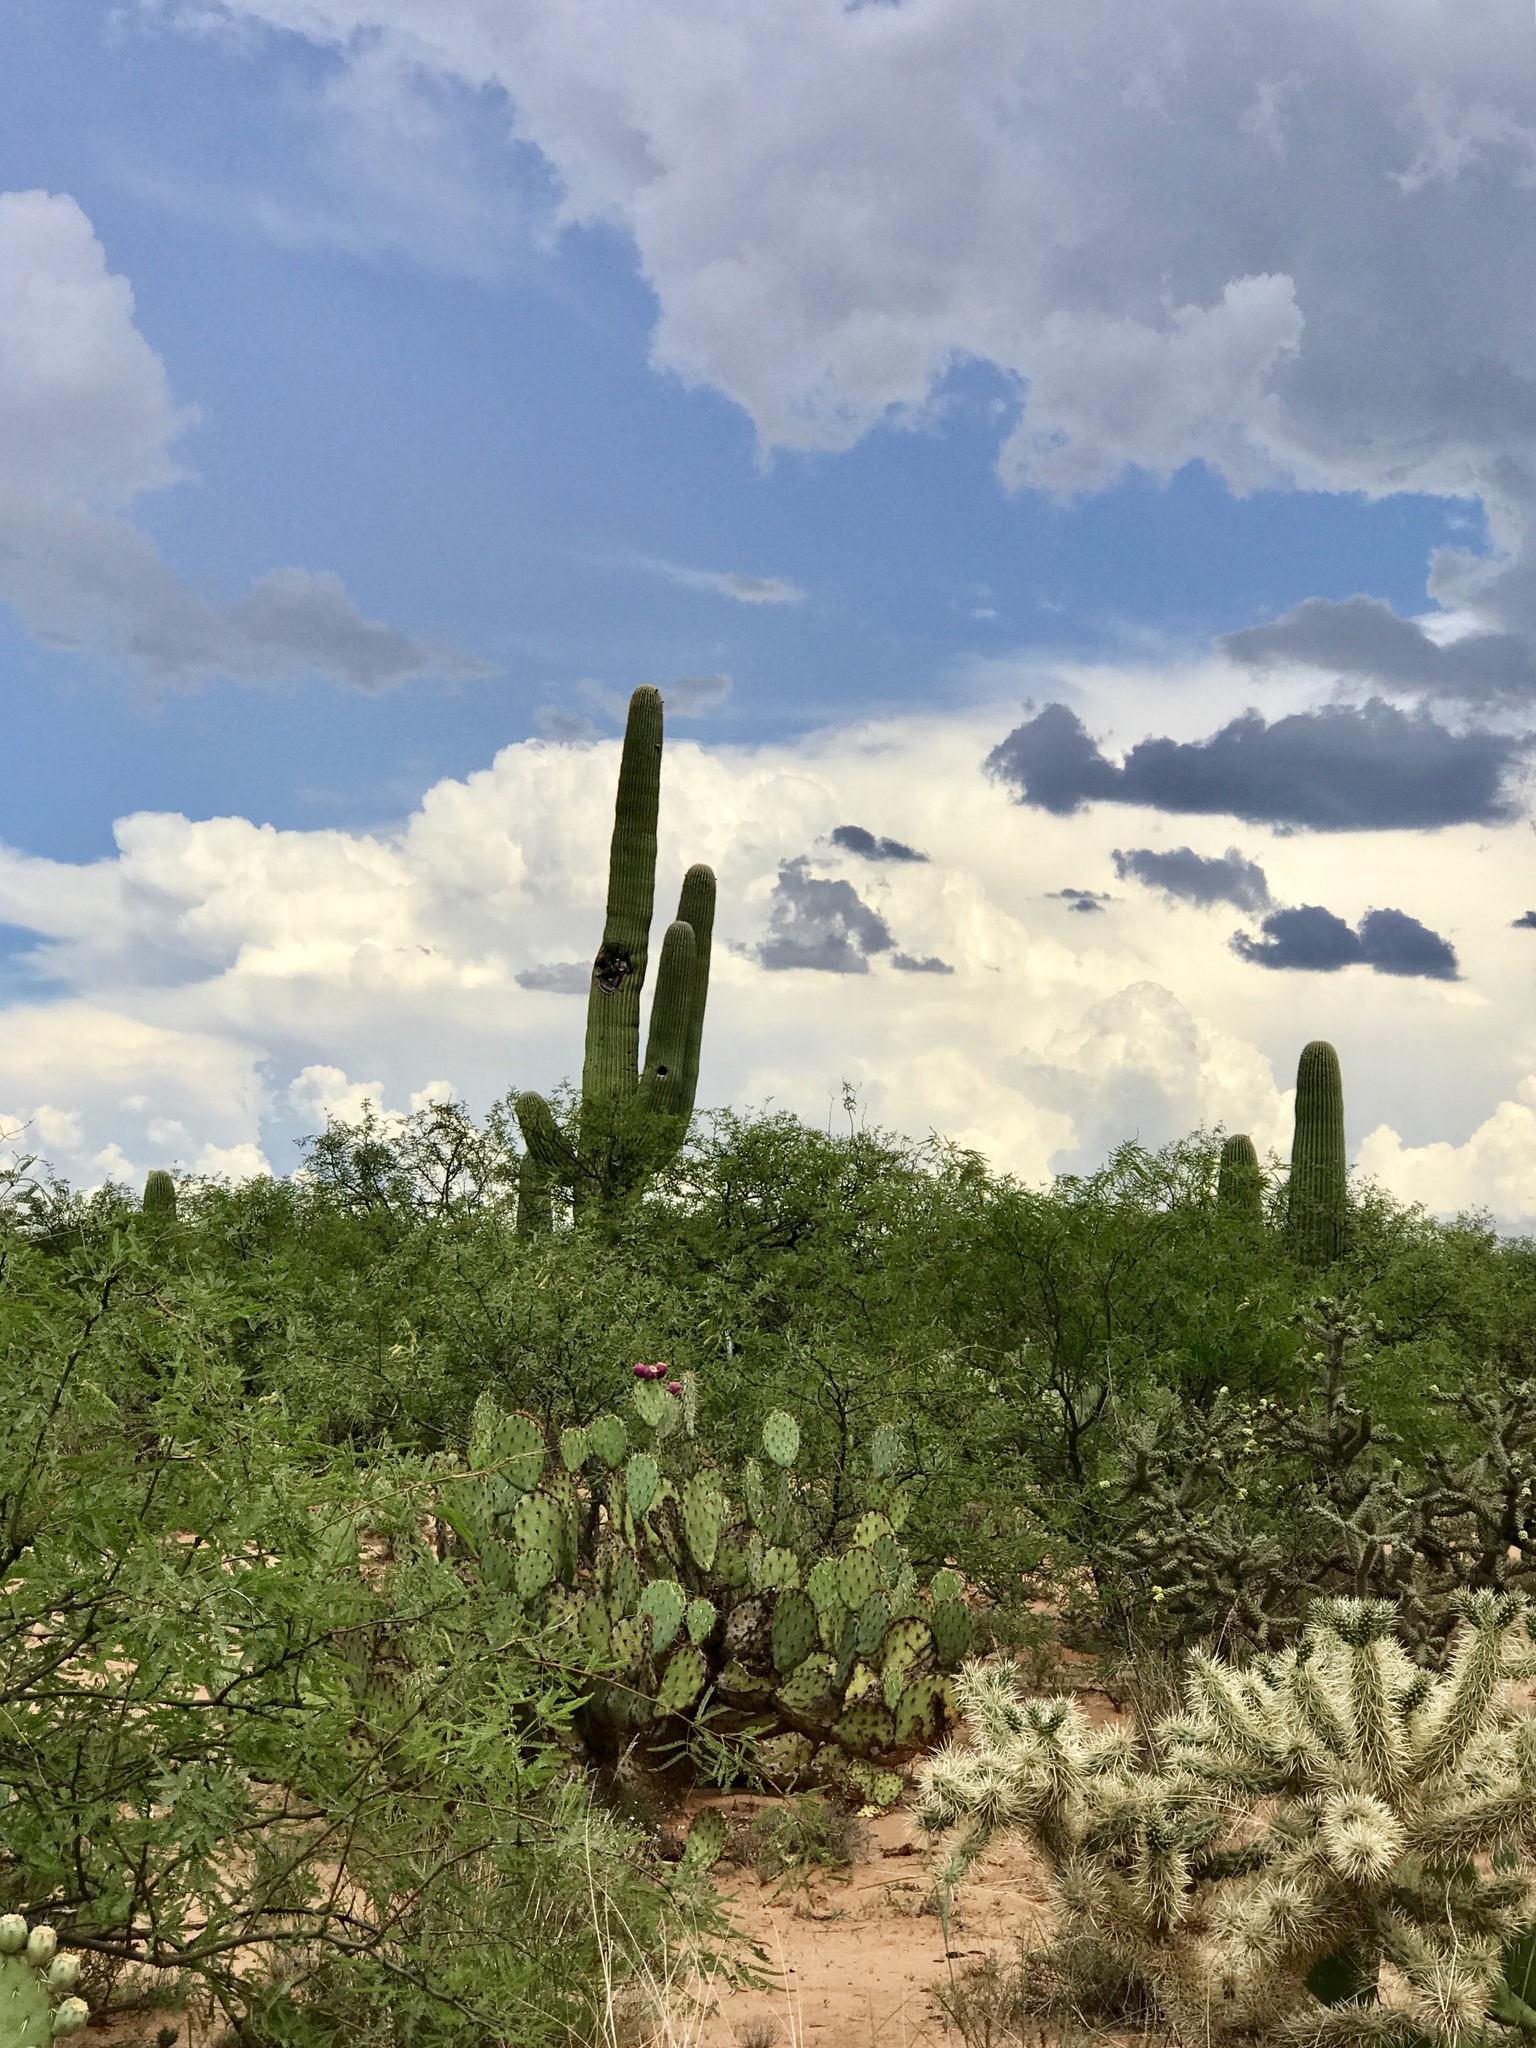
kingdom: Plantae
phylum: Tracheophyta
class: Magnoliopsida
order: Caryophyllales
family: Cactaceae
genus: Carnegiea
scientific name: Carnegiea gigantea
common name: Saguaro
